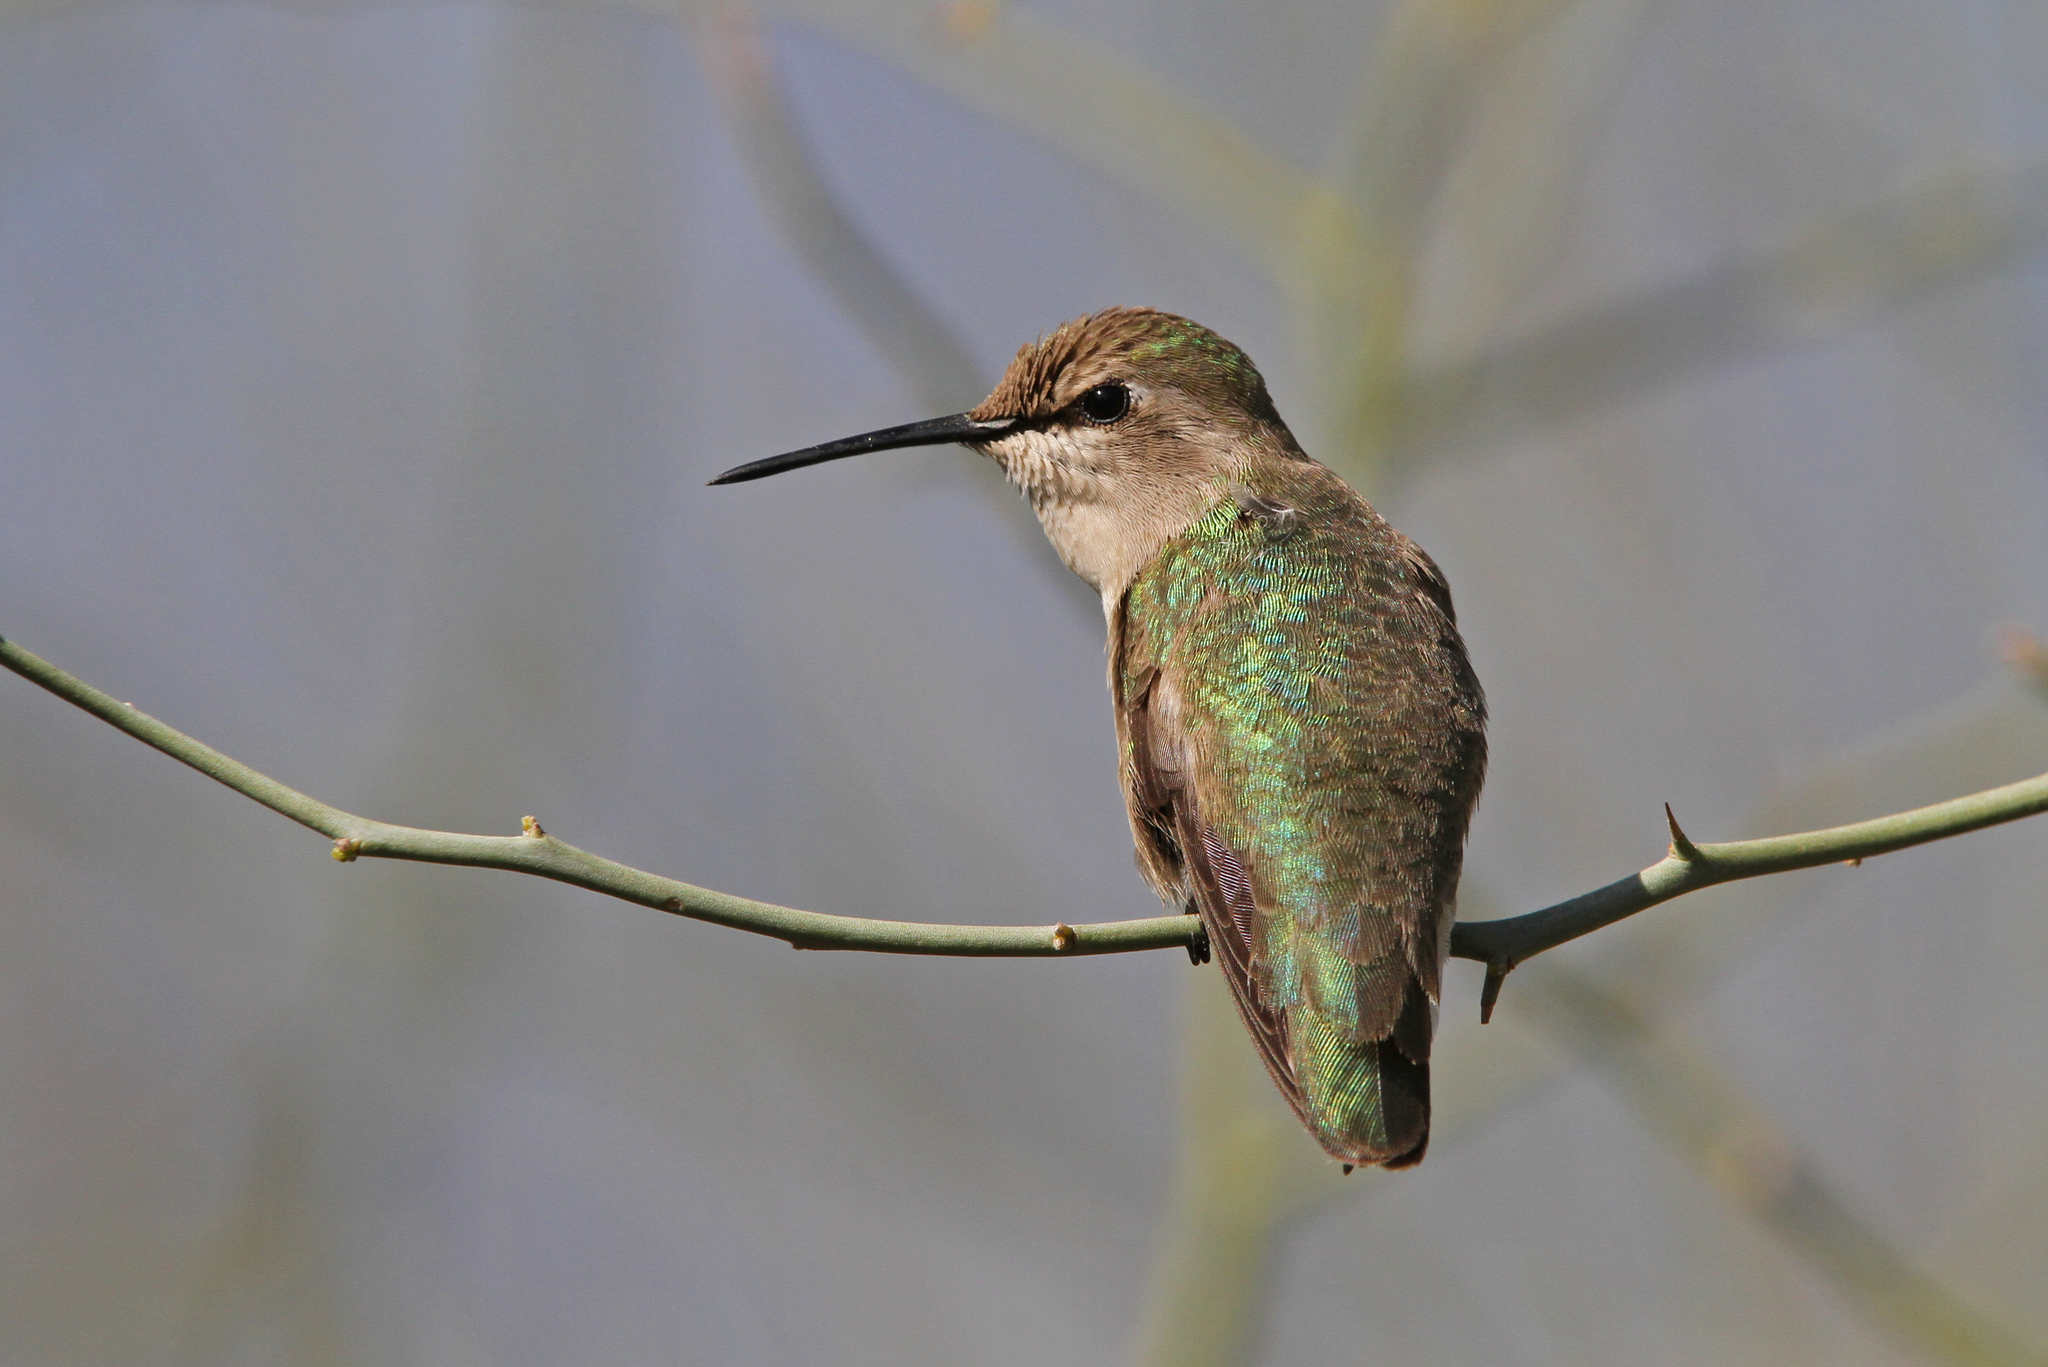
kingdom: Animalia
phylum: Chordata
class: Aves
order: Apodiformes
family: Trochilidae
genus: Calypte
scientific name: Calypte costae
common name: Costa's hummingbird
